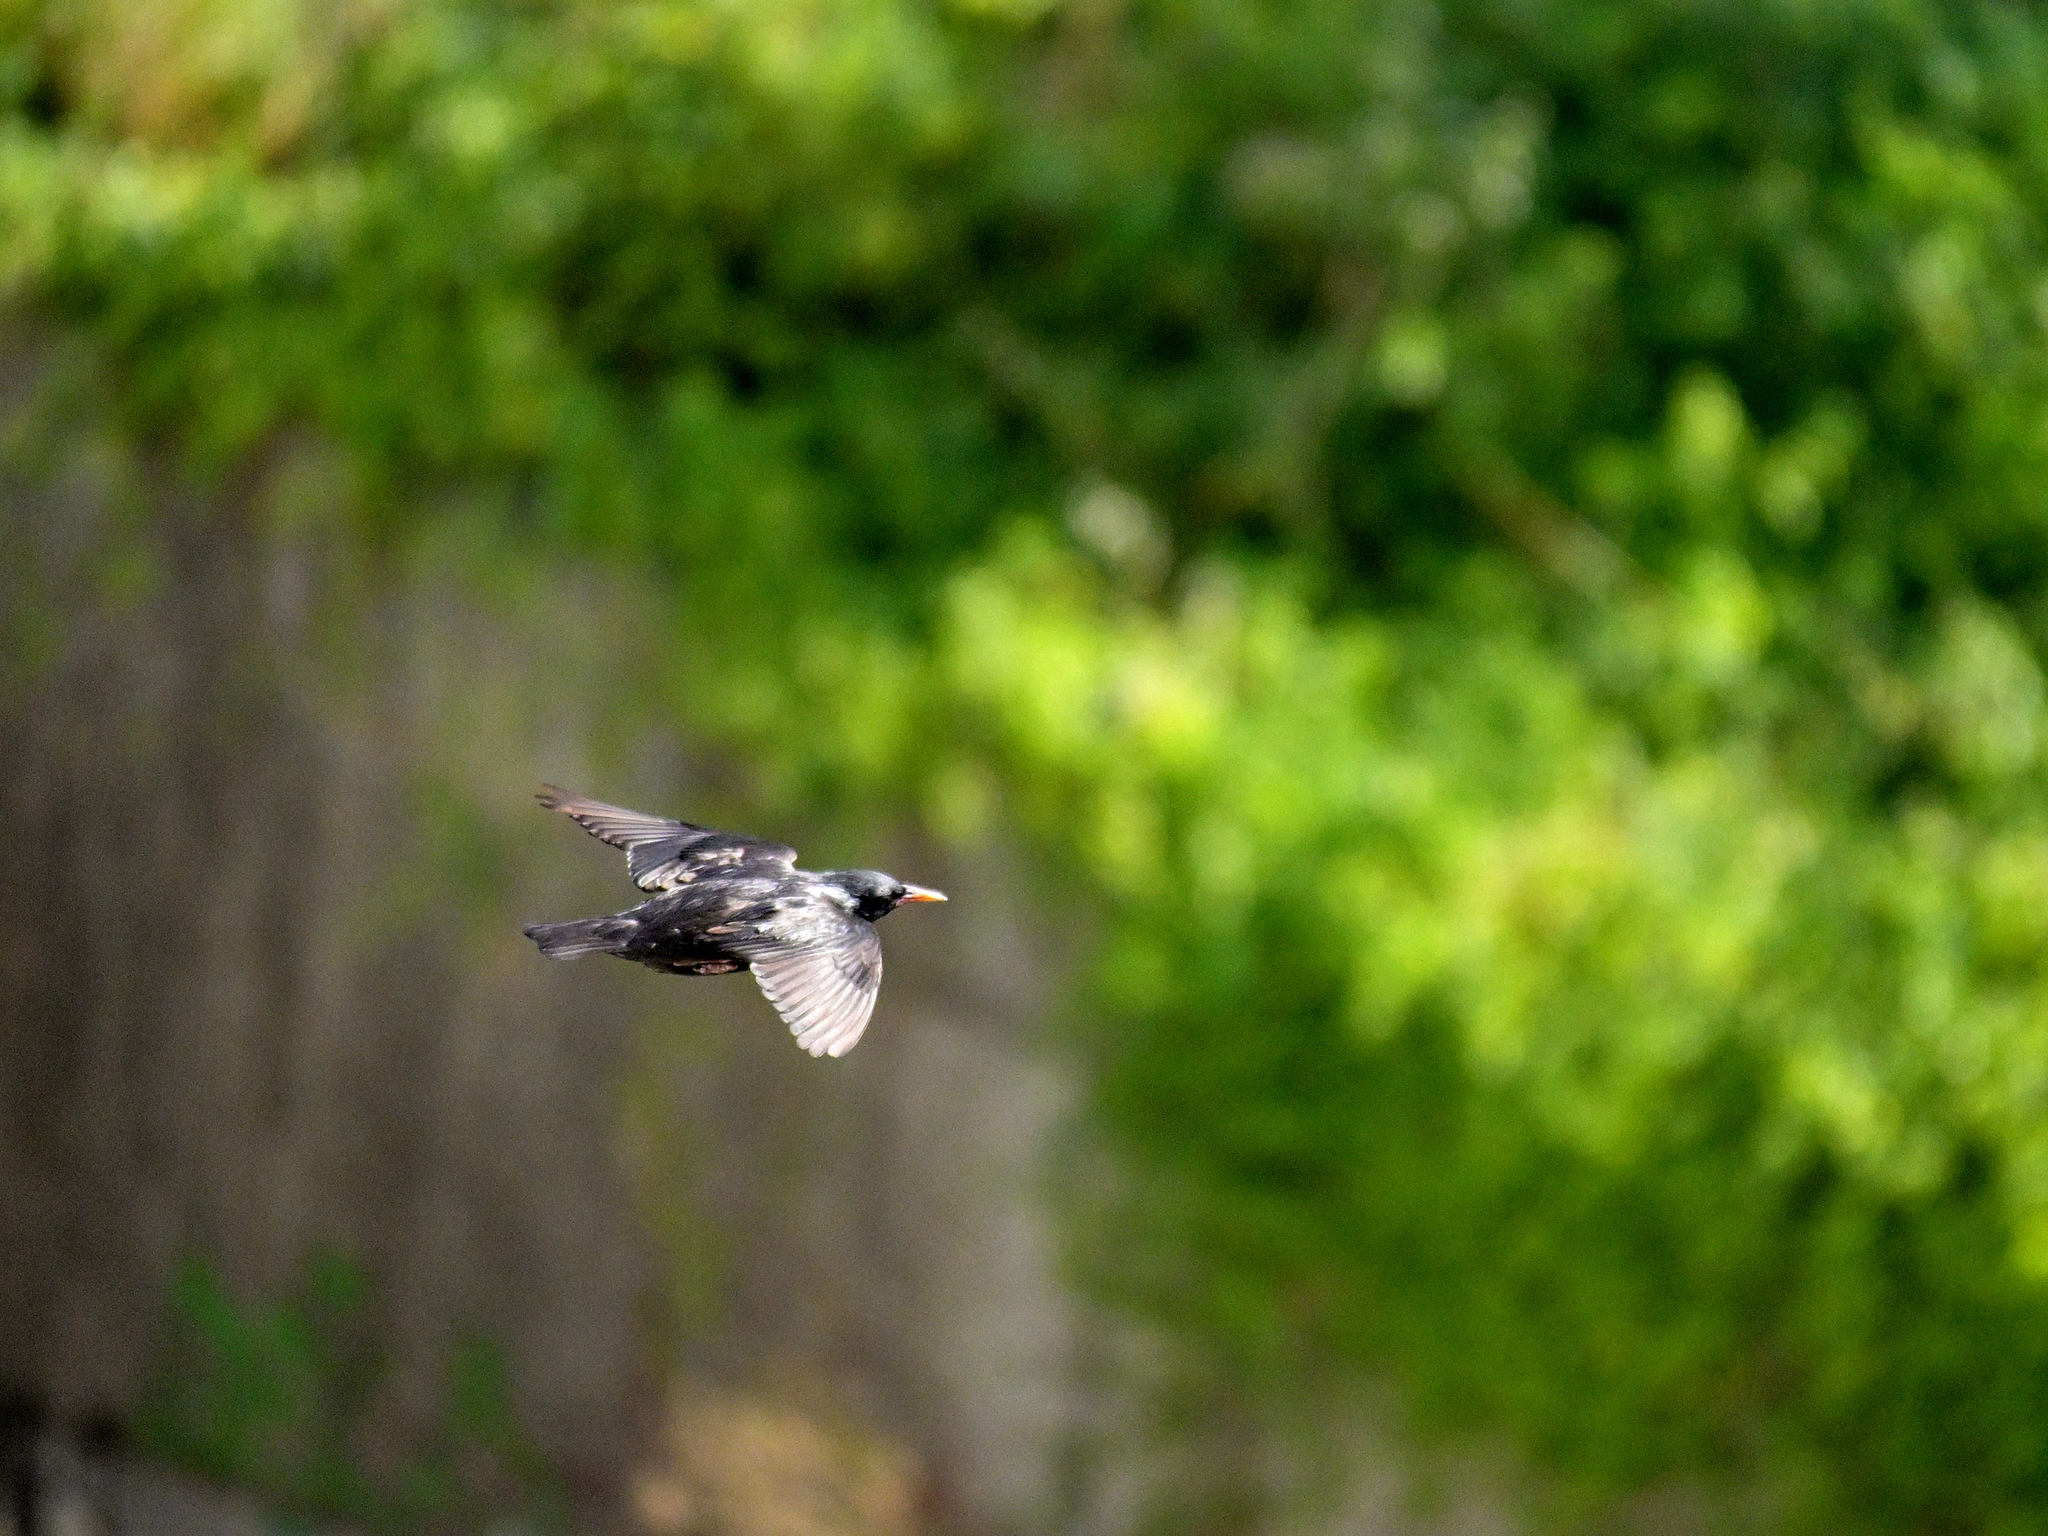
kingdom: Animalia
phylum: Chordata
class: Aves
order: Passeriformes
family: Sturnidae
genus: Sturnus
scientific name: Sturnus unicolor
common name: Spotless starling
